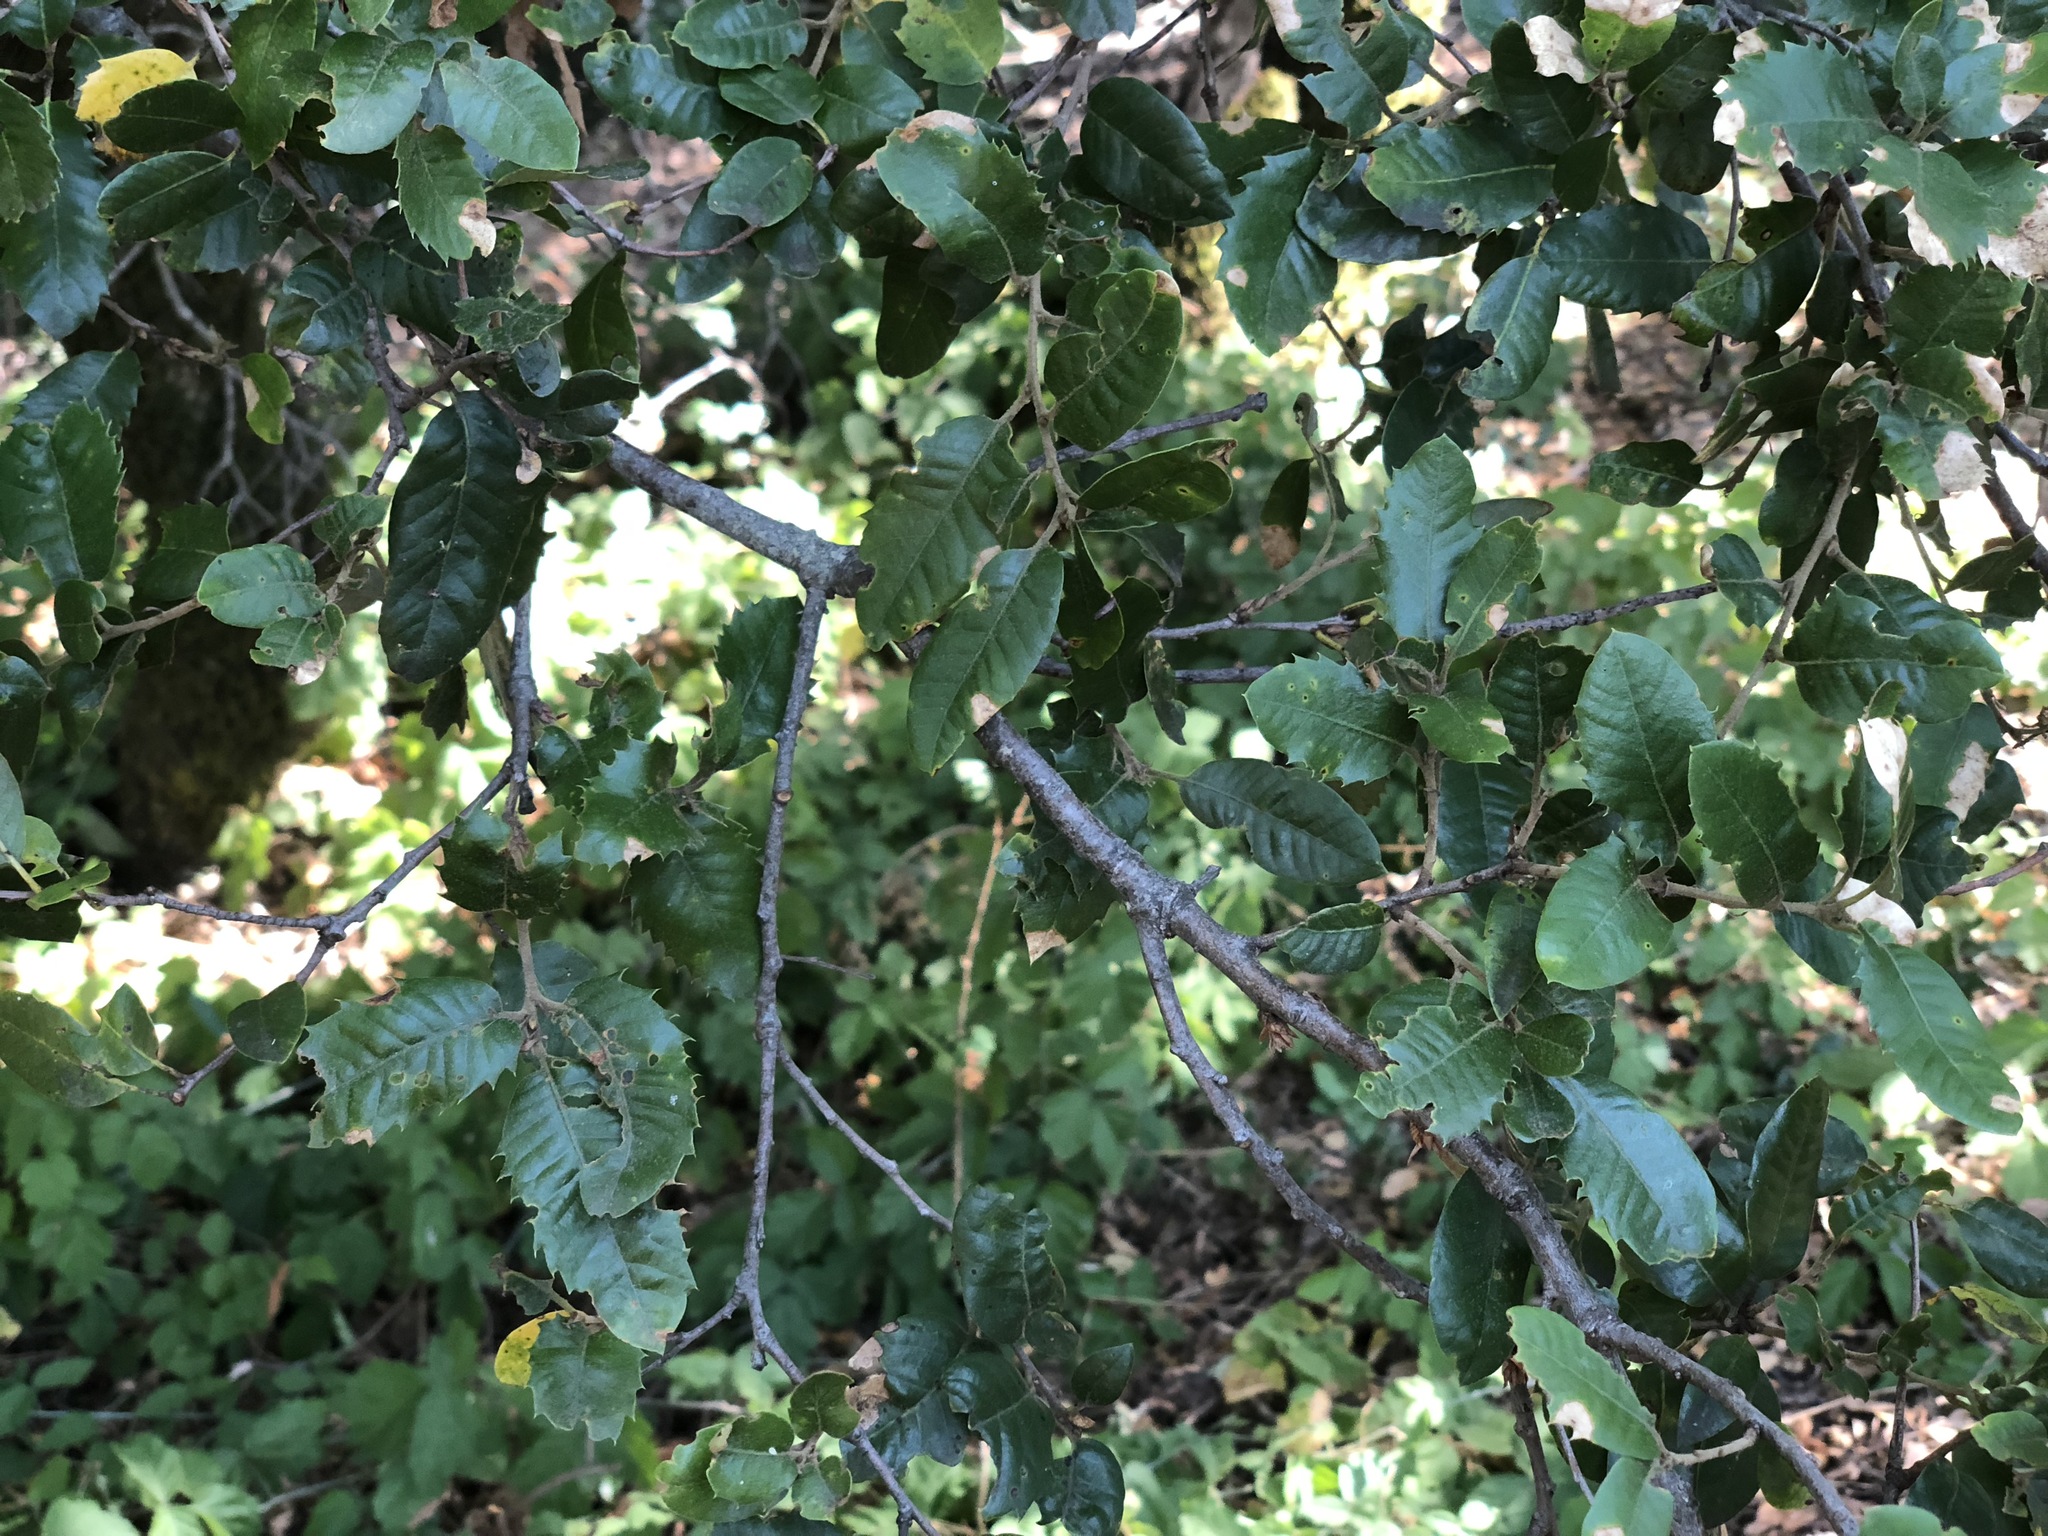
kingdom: Plantae
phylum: Tracheophyta
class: Magnoliopsida
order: Fagales
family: Fagaceae
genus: Quercus
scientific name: Quercus chrysolepis
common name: Canyon live oak
